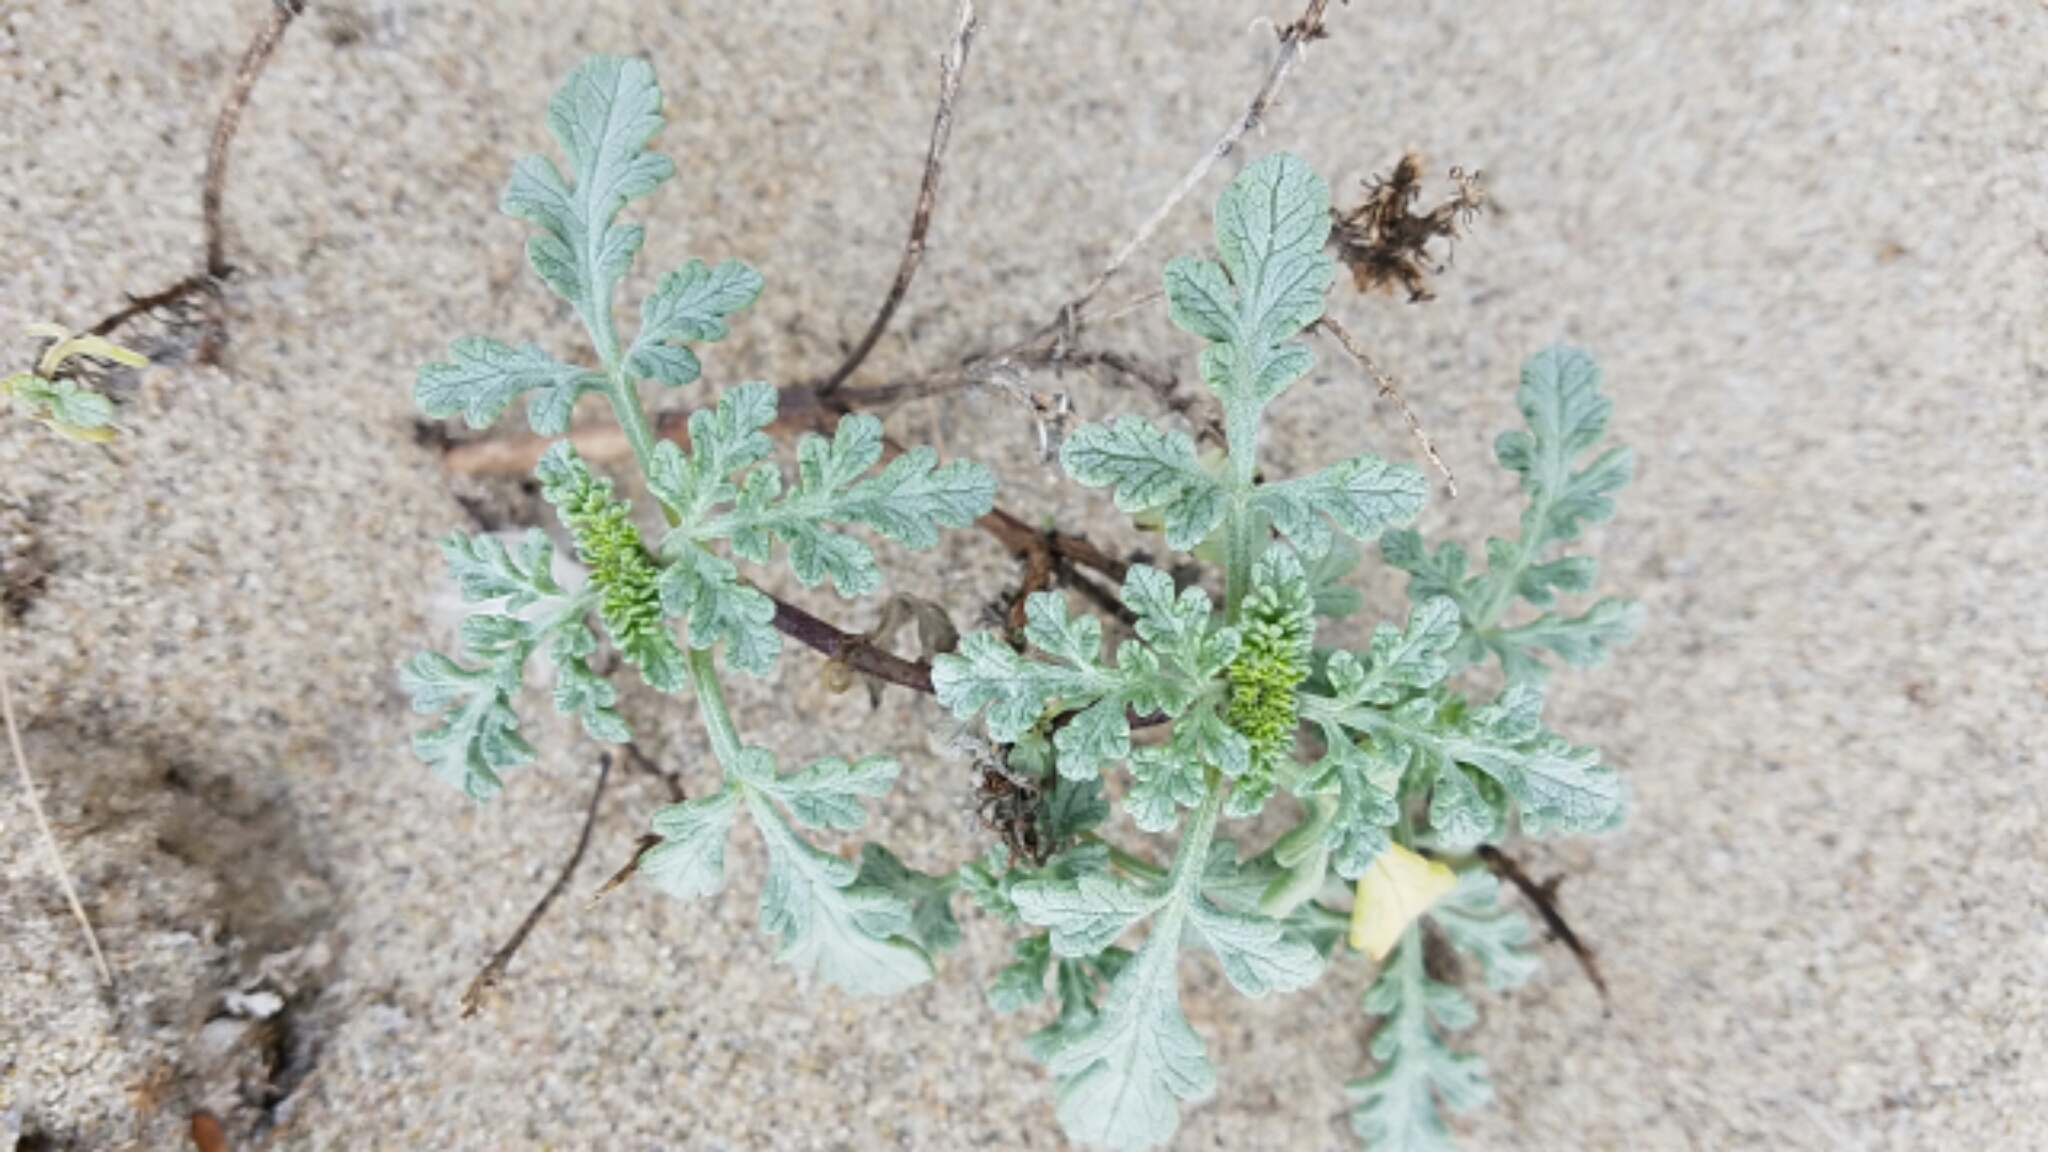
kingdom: Plantae
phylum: Tracheophyta
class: Magnoliopsida
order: Asterales
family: Asteraceae
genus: Ambrosia
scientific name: Ambrosia chamissonis
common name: Beachbur
